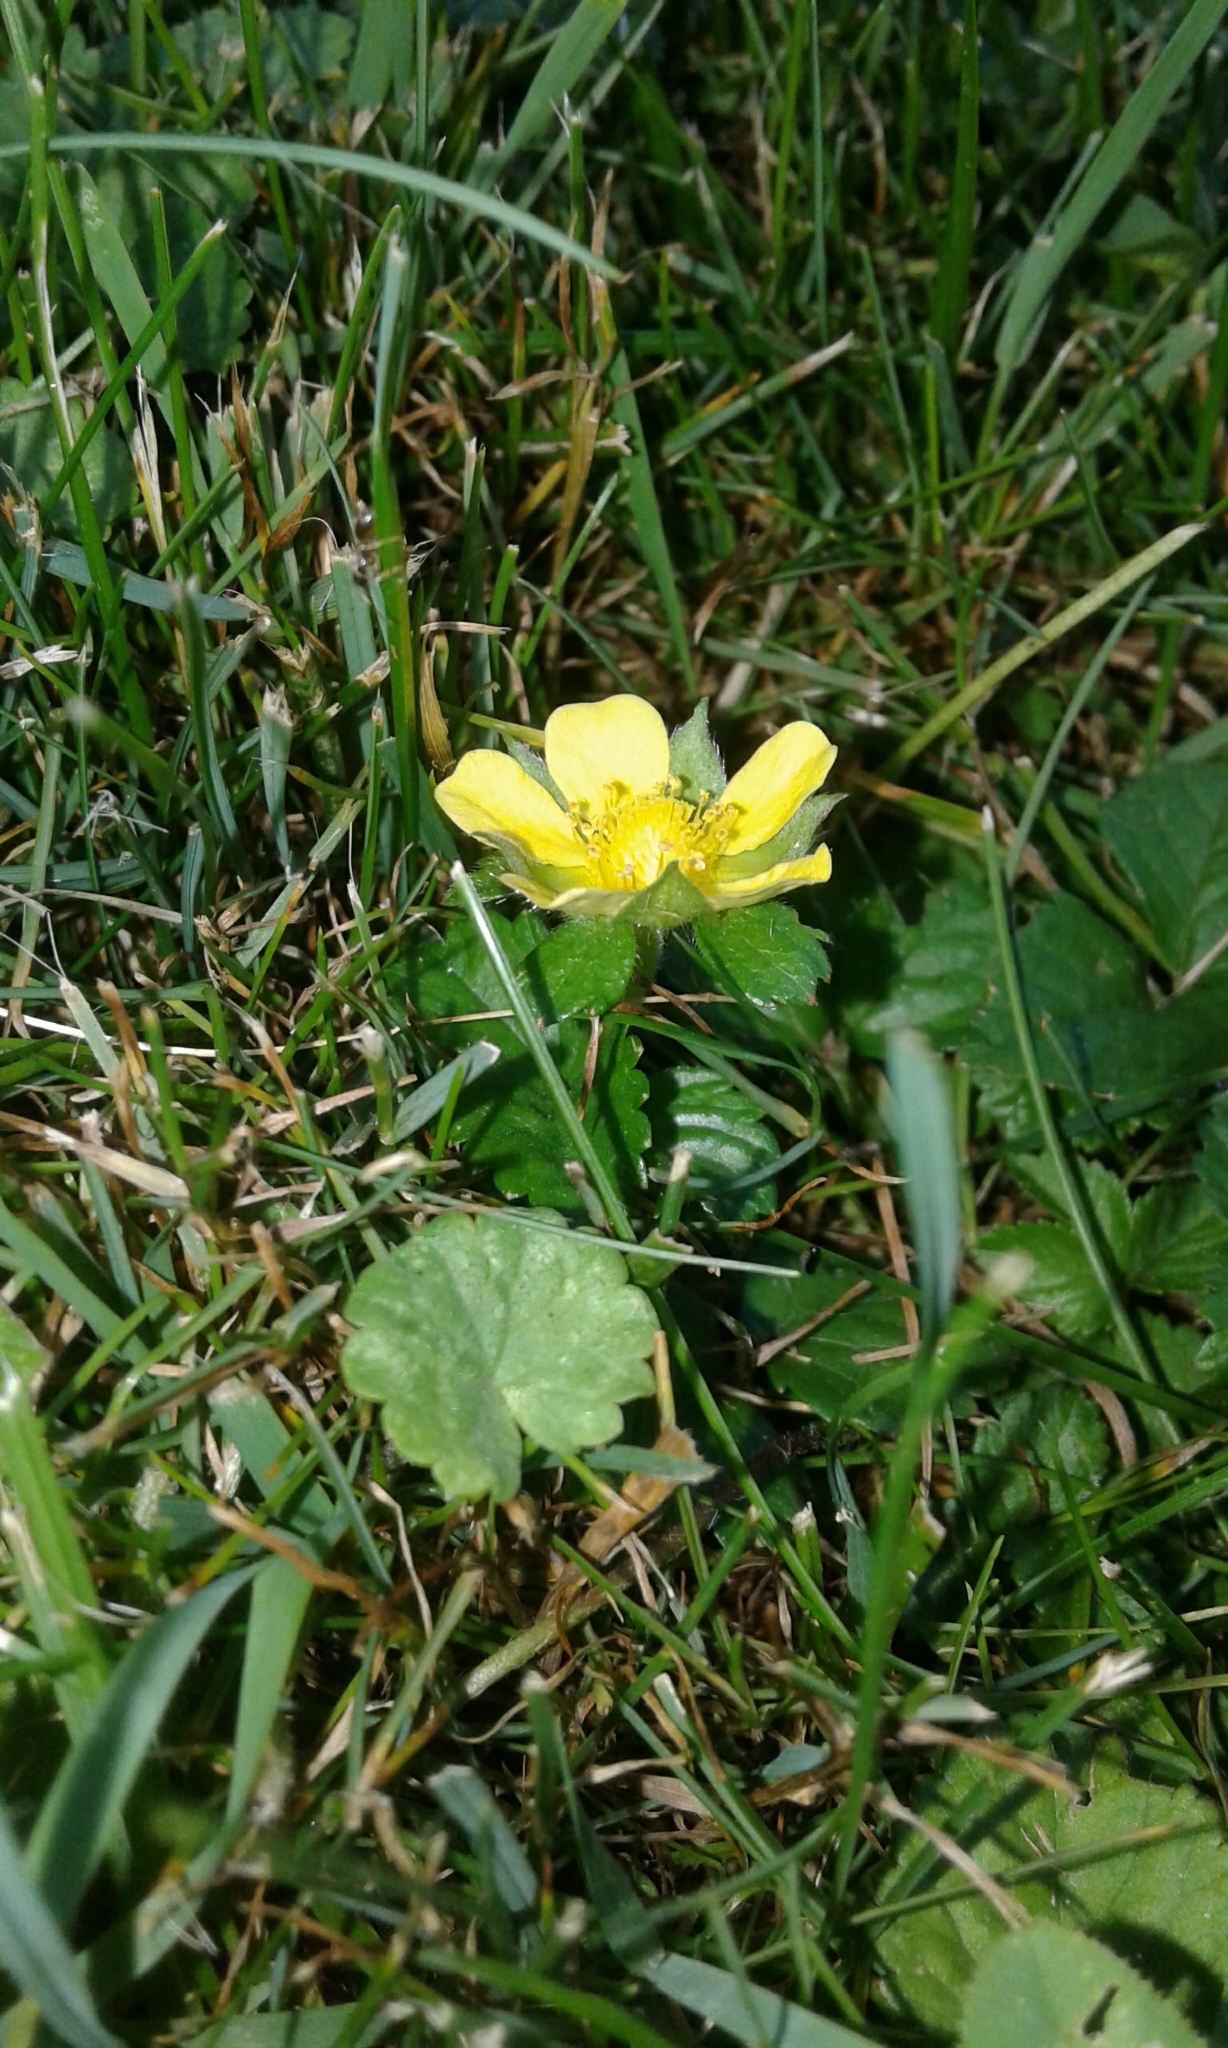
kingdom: Plantae
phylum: Tracheophyta
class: Magnoliopsida
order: Rosales
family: Rosaceae
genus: Potentilla
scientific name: Potentilla indica
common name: Yellow-flowered strawberry
